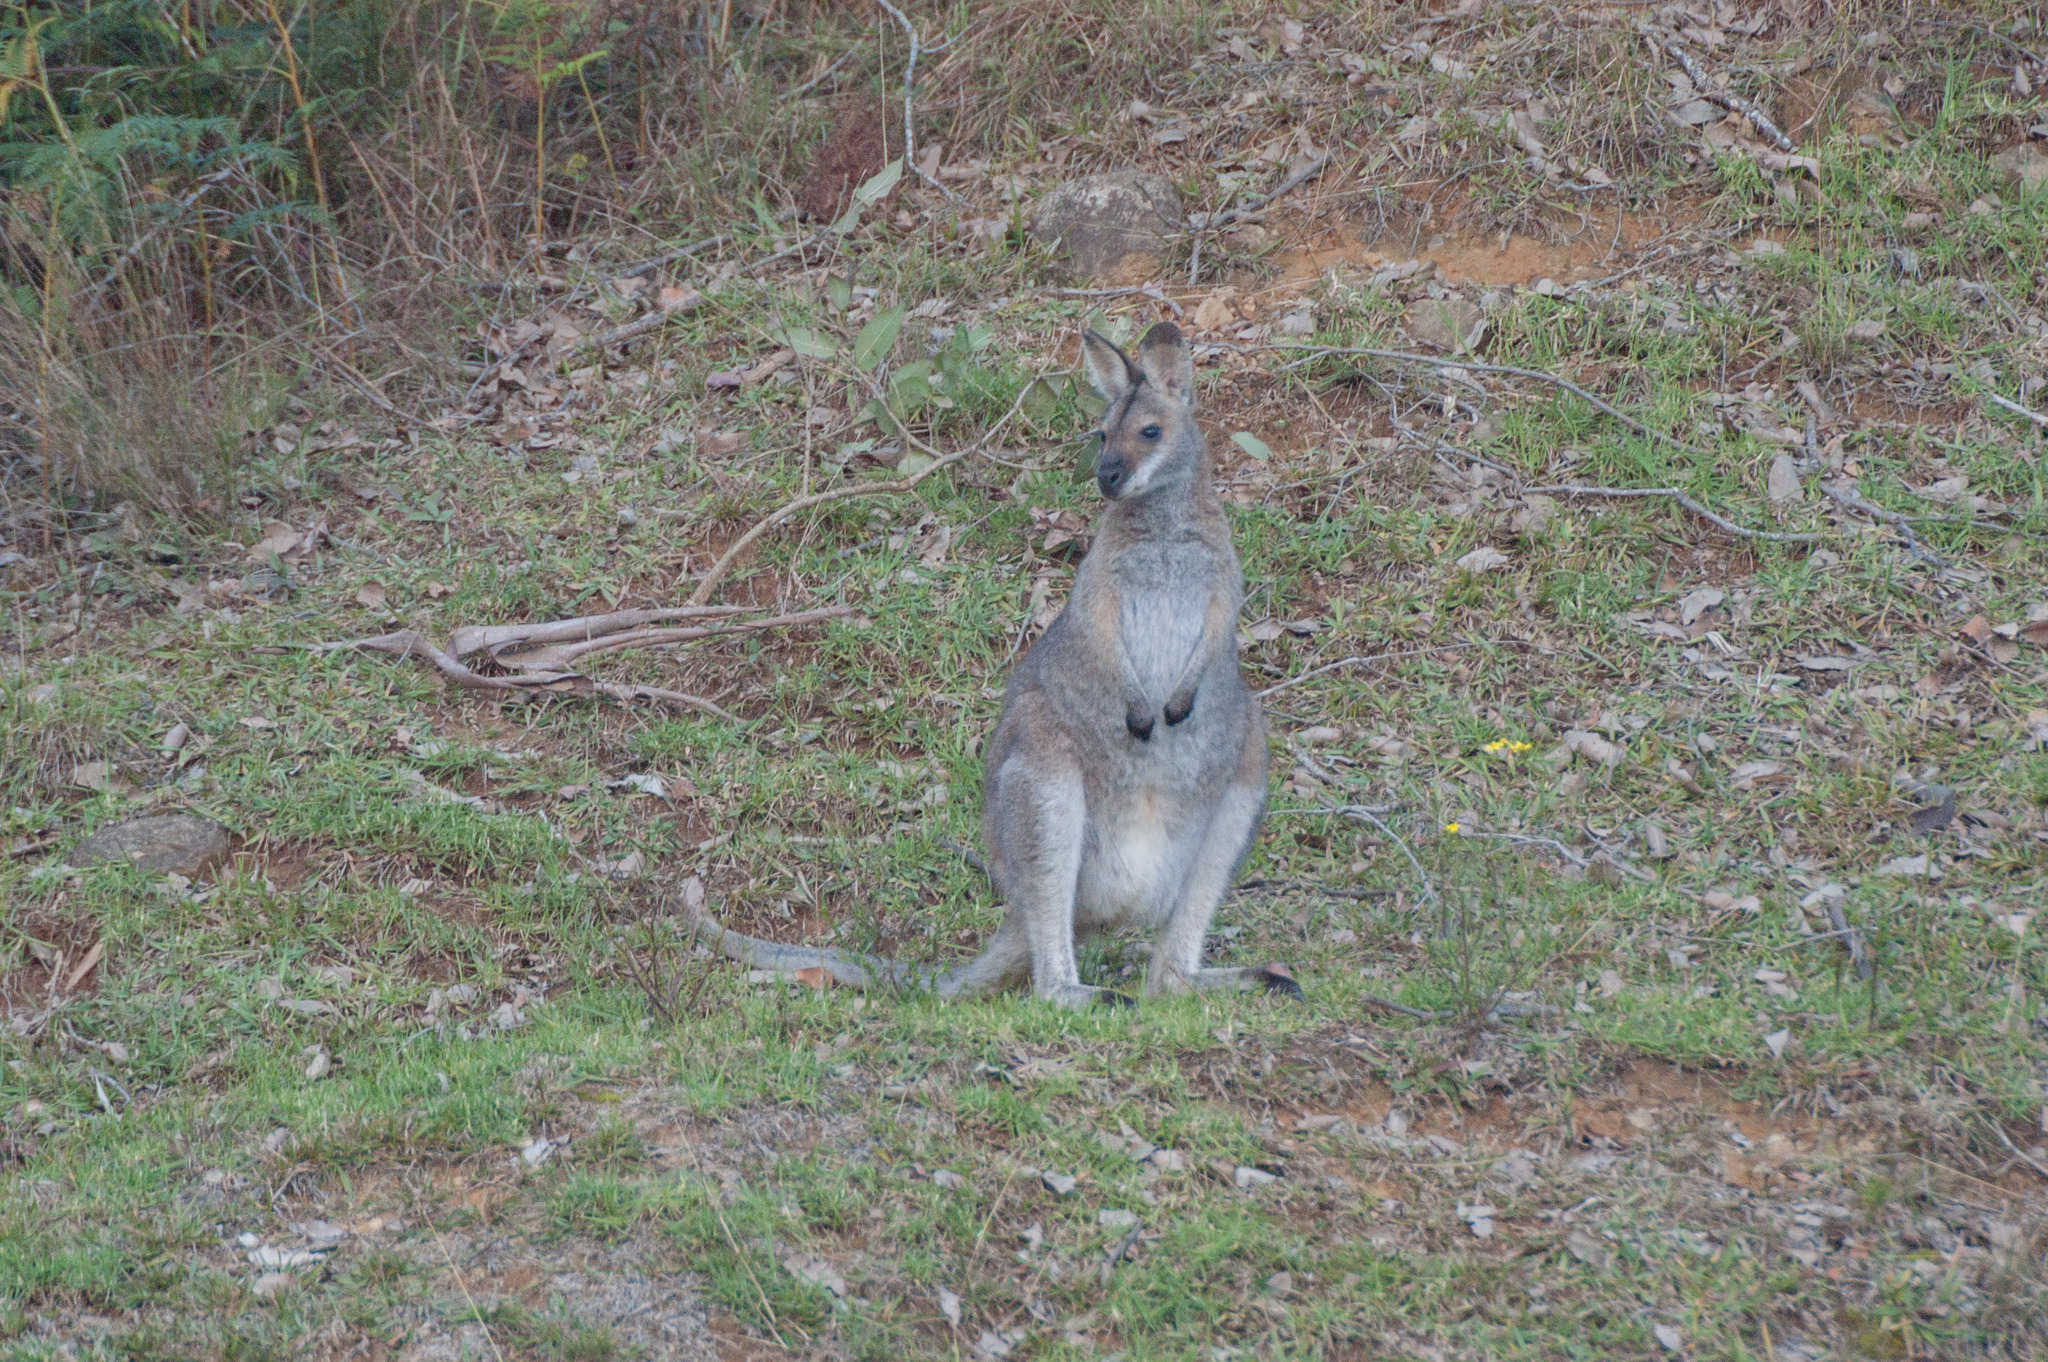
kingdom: Animalia
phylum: Chordata
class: Mammalia
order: Diprotodontia
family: Macropodidae
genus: Notamacropus
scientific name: Notamacropus rufogriseus
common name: Red-necked wallaby
